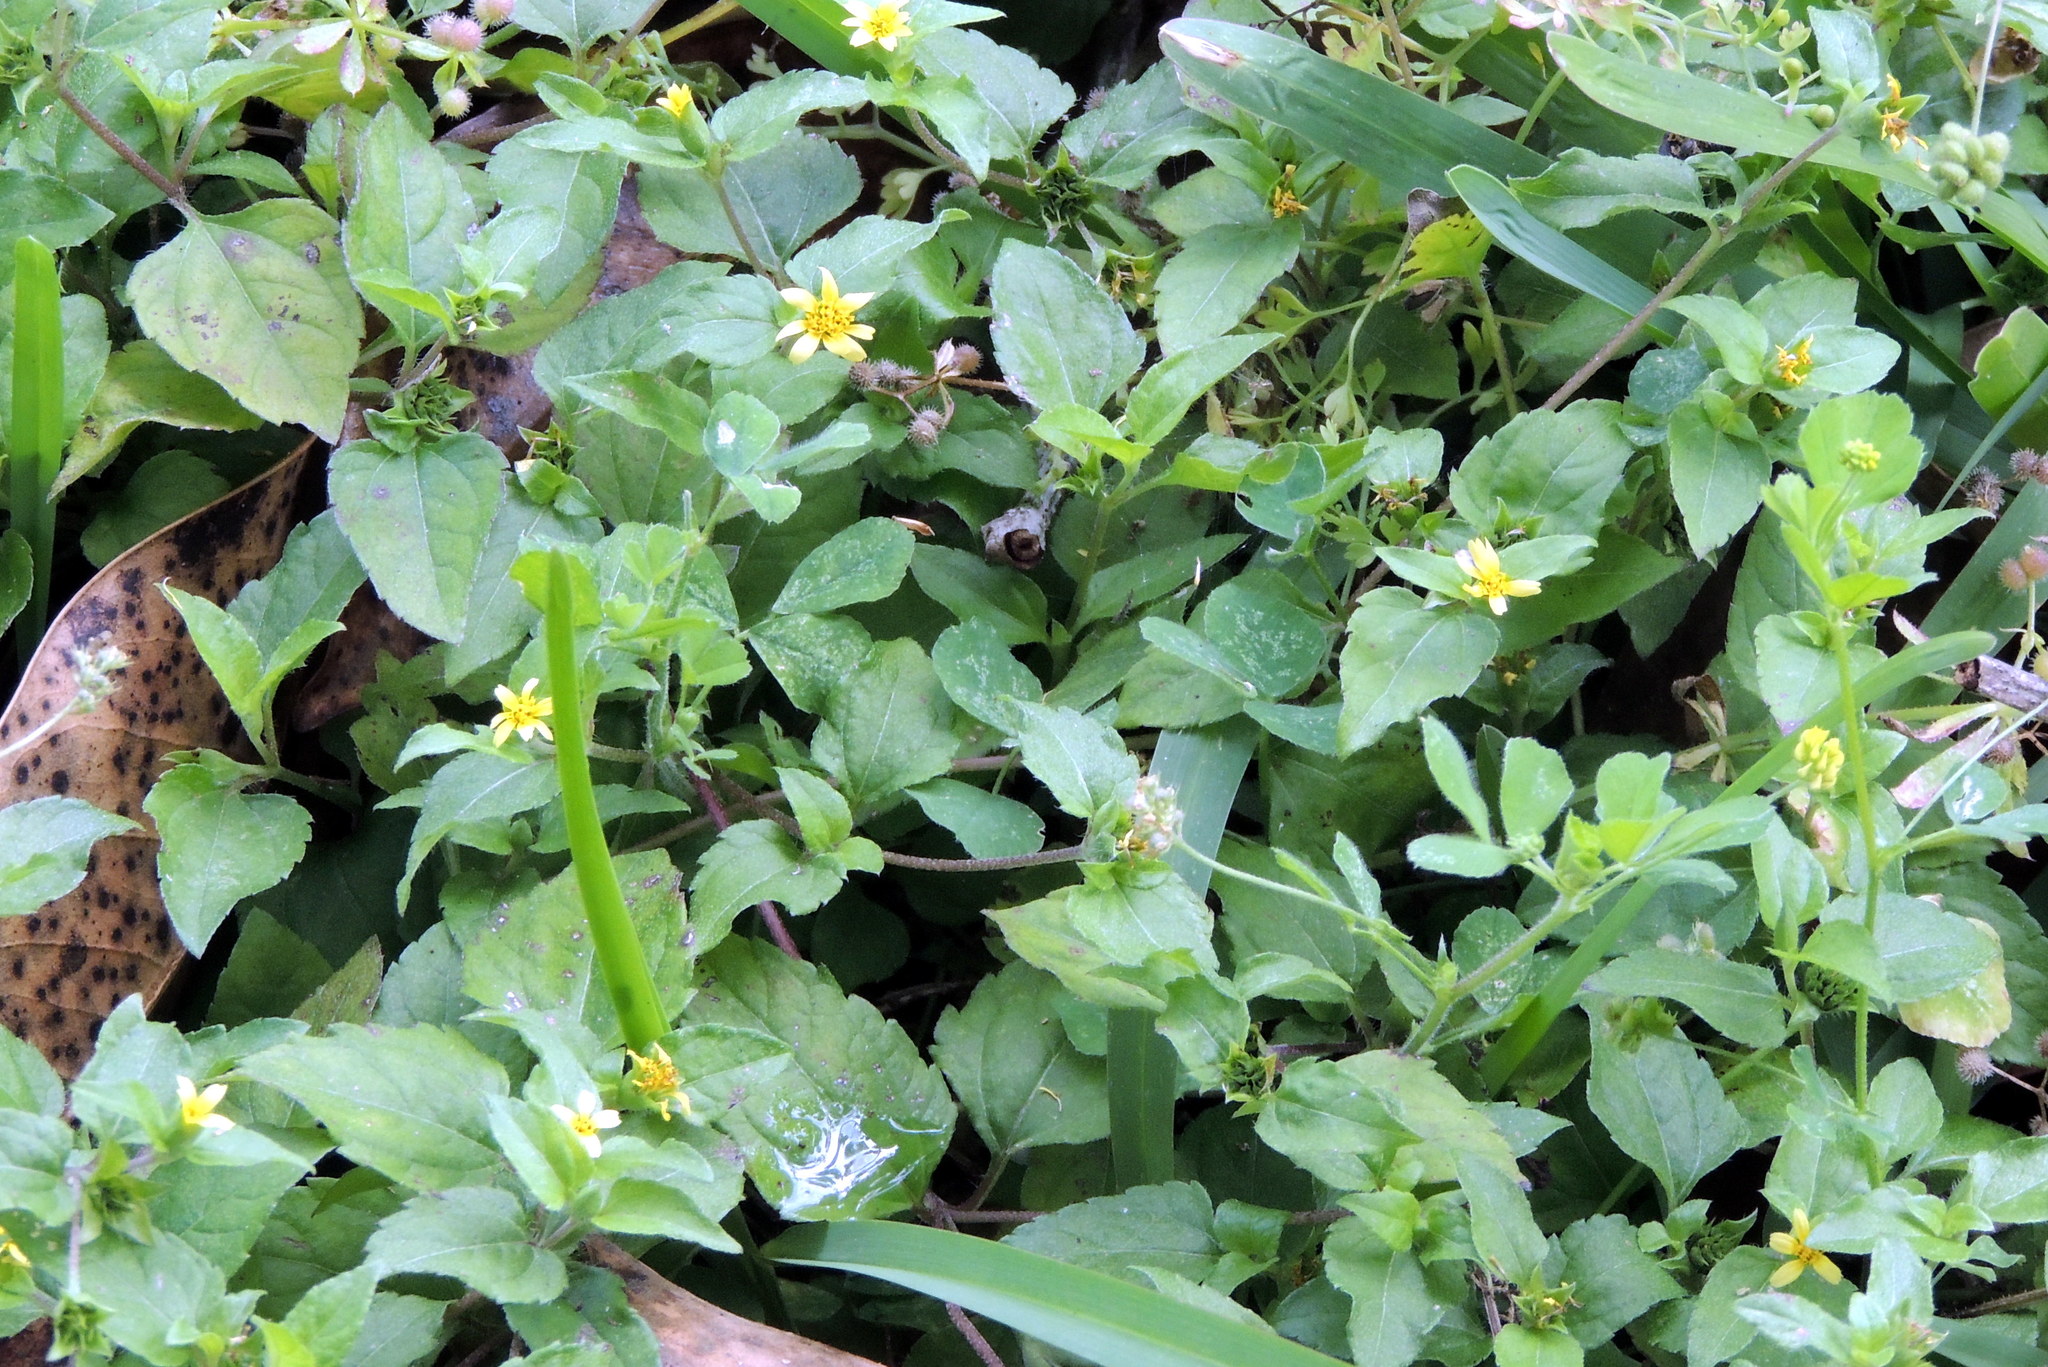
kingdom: Plantae
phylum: Tracheophyta
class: Magnoliopsida
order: Asterales
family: Asteraceae
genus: Calyptocarpus
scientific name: Calyptocarpus vialis
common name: Straggler daisy
